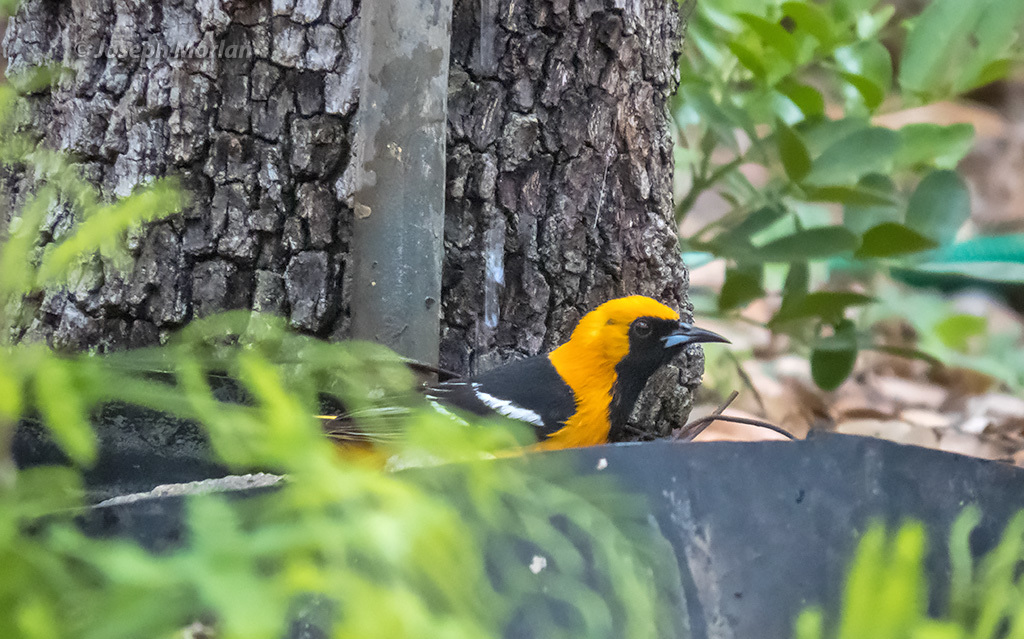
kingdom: Animalia
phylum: Chordata
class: Aves
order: Passeriformes
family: Icteridae
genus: Icterus
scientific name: Icterus cucullatus
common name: Hooded oriole
